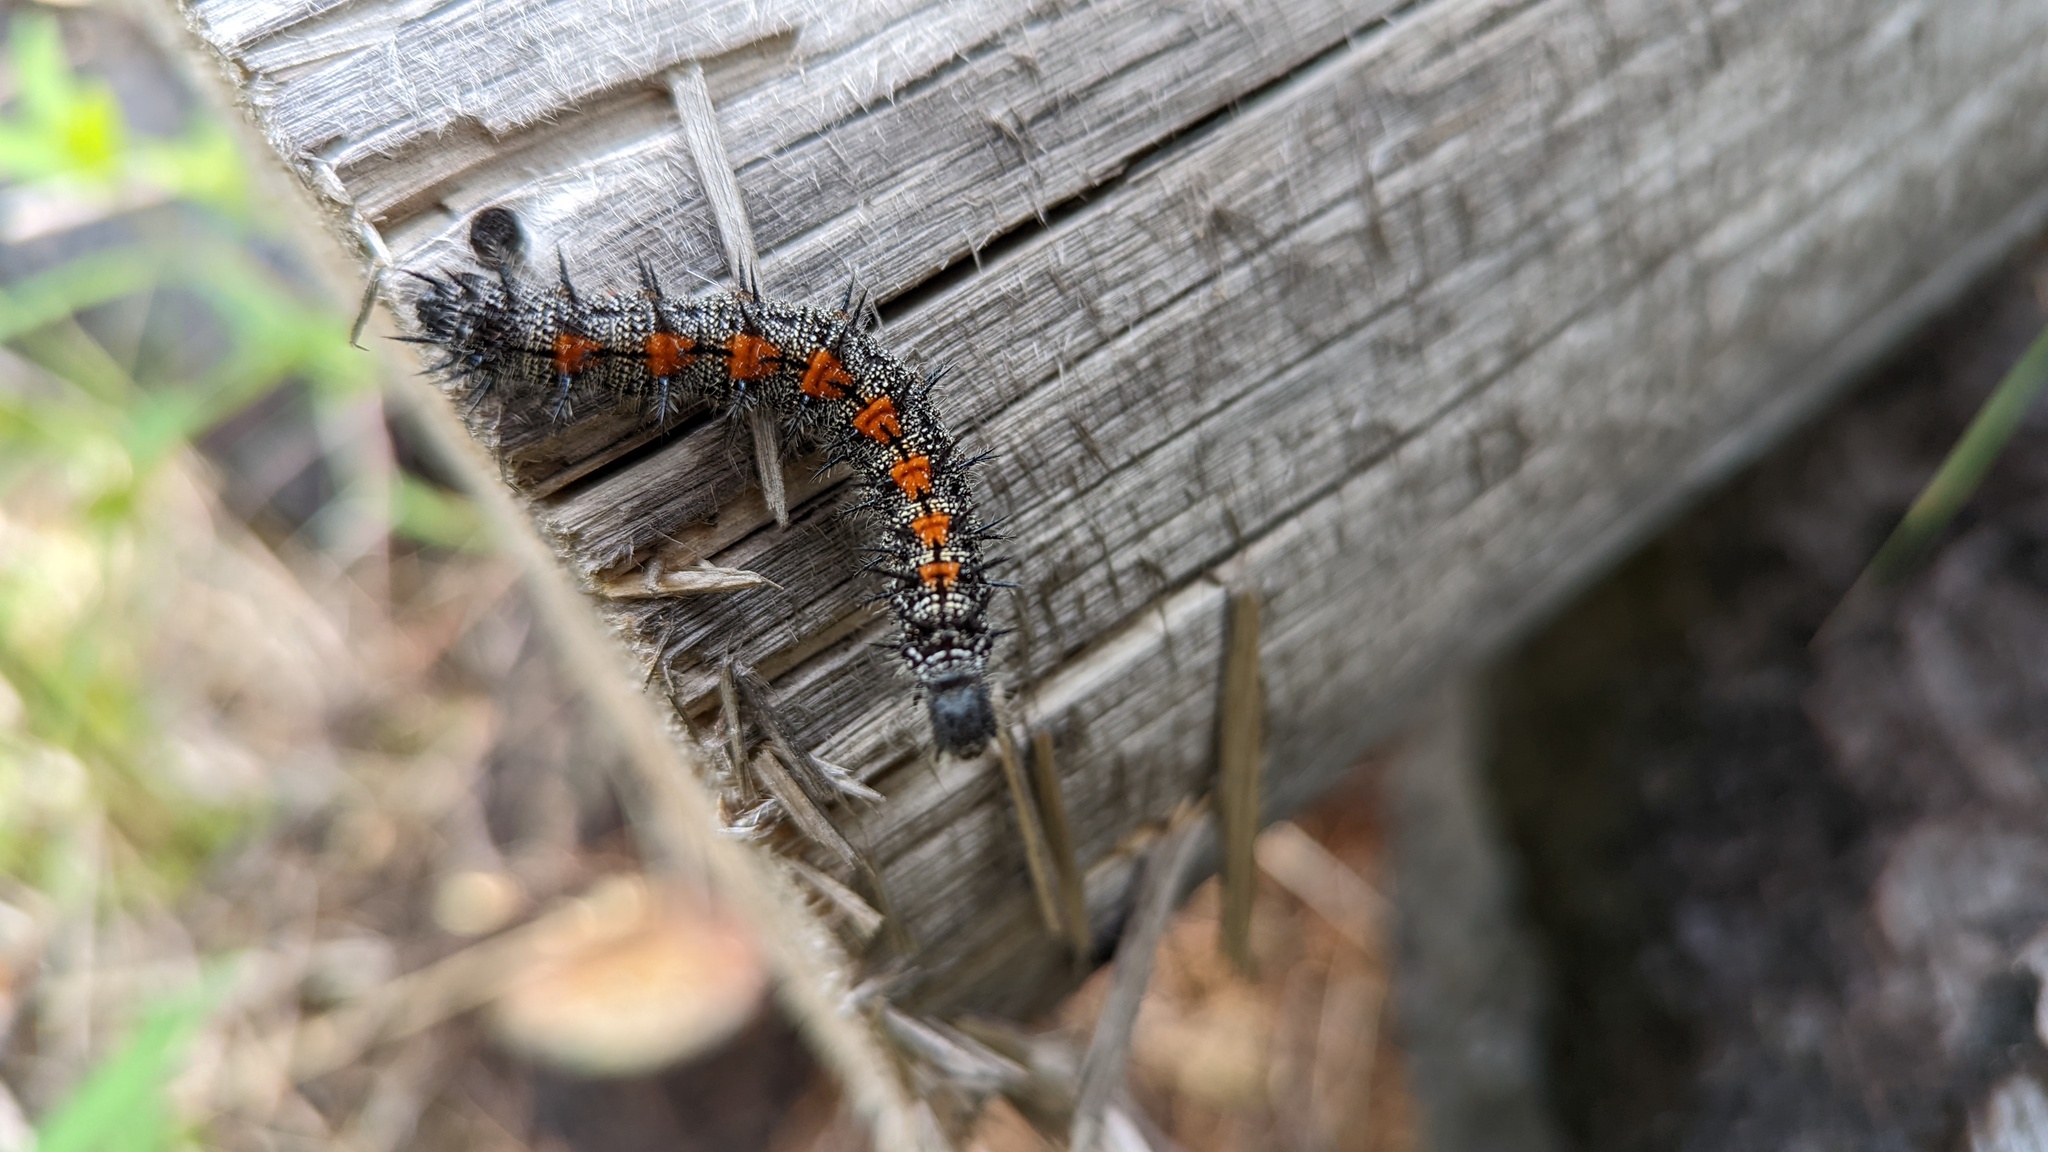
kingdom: Animalia
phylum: Arthropoda
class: Insecta
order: Lepidoptera
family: Nymphalidae
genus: Nymphalis
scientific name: Nymphalis antiopa
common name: Camberwell beauty
